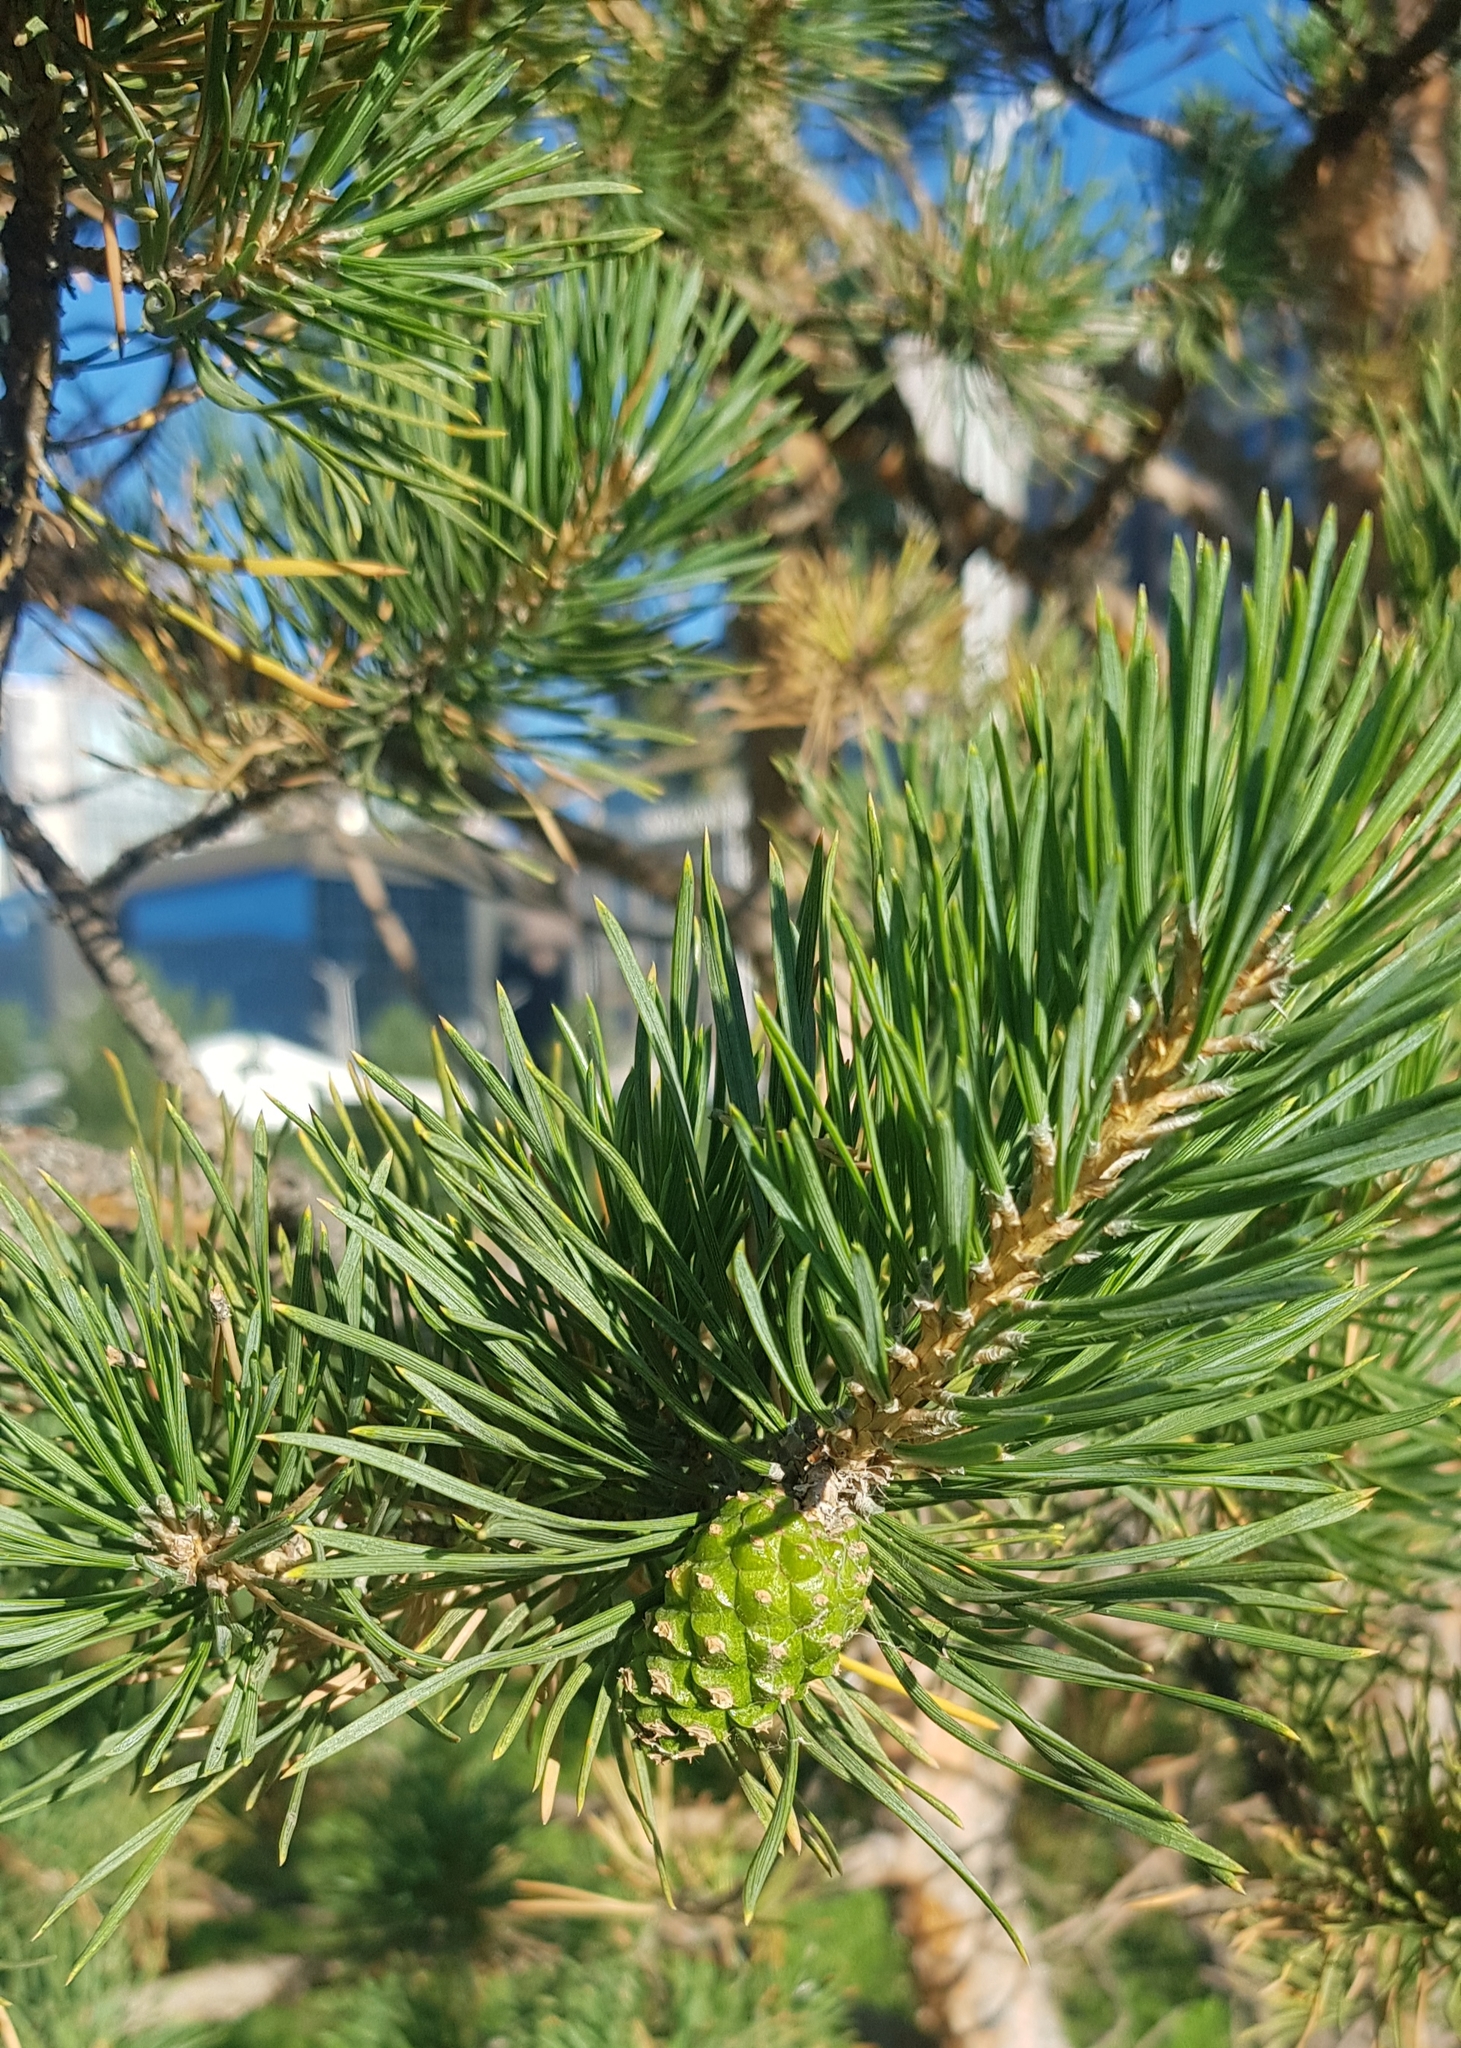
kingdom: Plantae
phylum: Tracheophyta
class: Pinopsida
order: Pinales
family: Pinaceae
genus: Pinus
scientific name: Pinus sylvestris
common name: Scots pine
